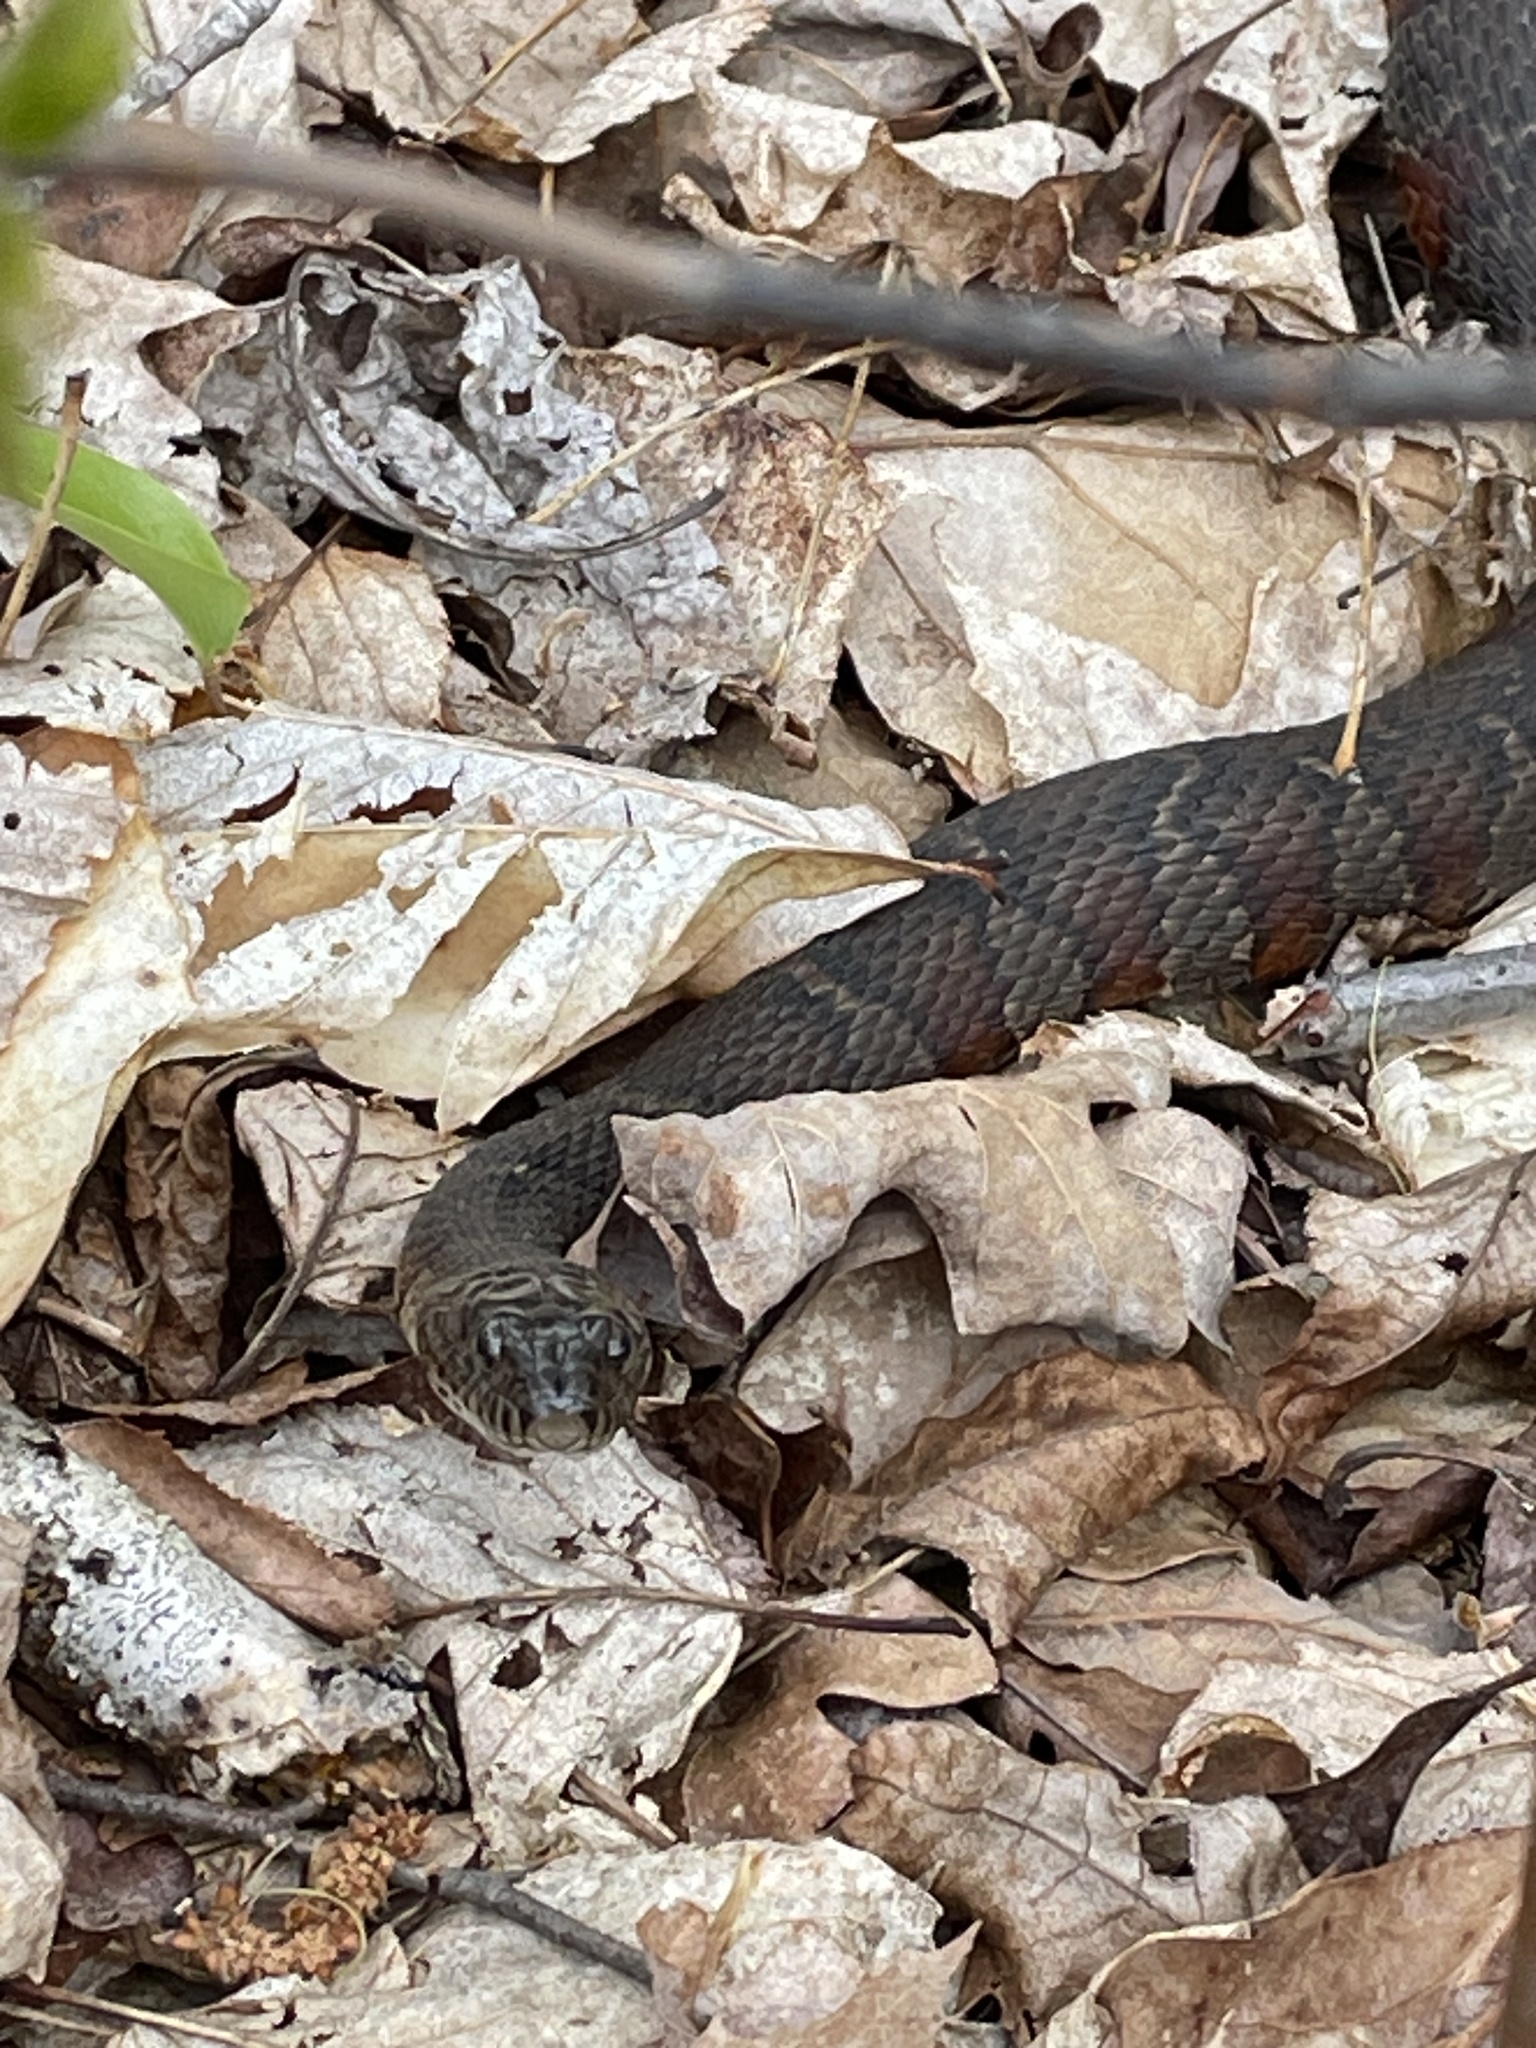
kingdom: Animalia
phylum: Chordata
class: Squamata
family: Colubridae
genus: Nerodia
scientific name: Nerodia sipedon
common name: Northern water snake
